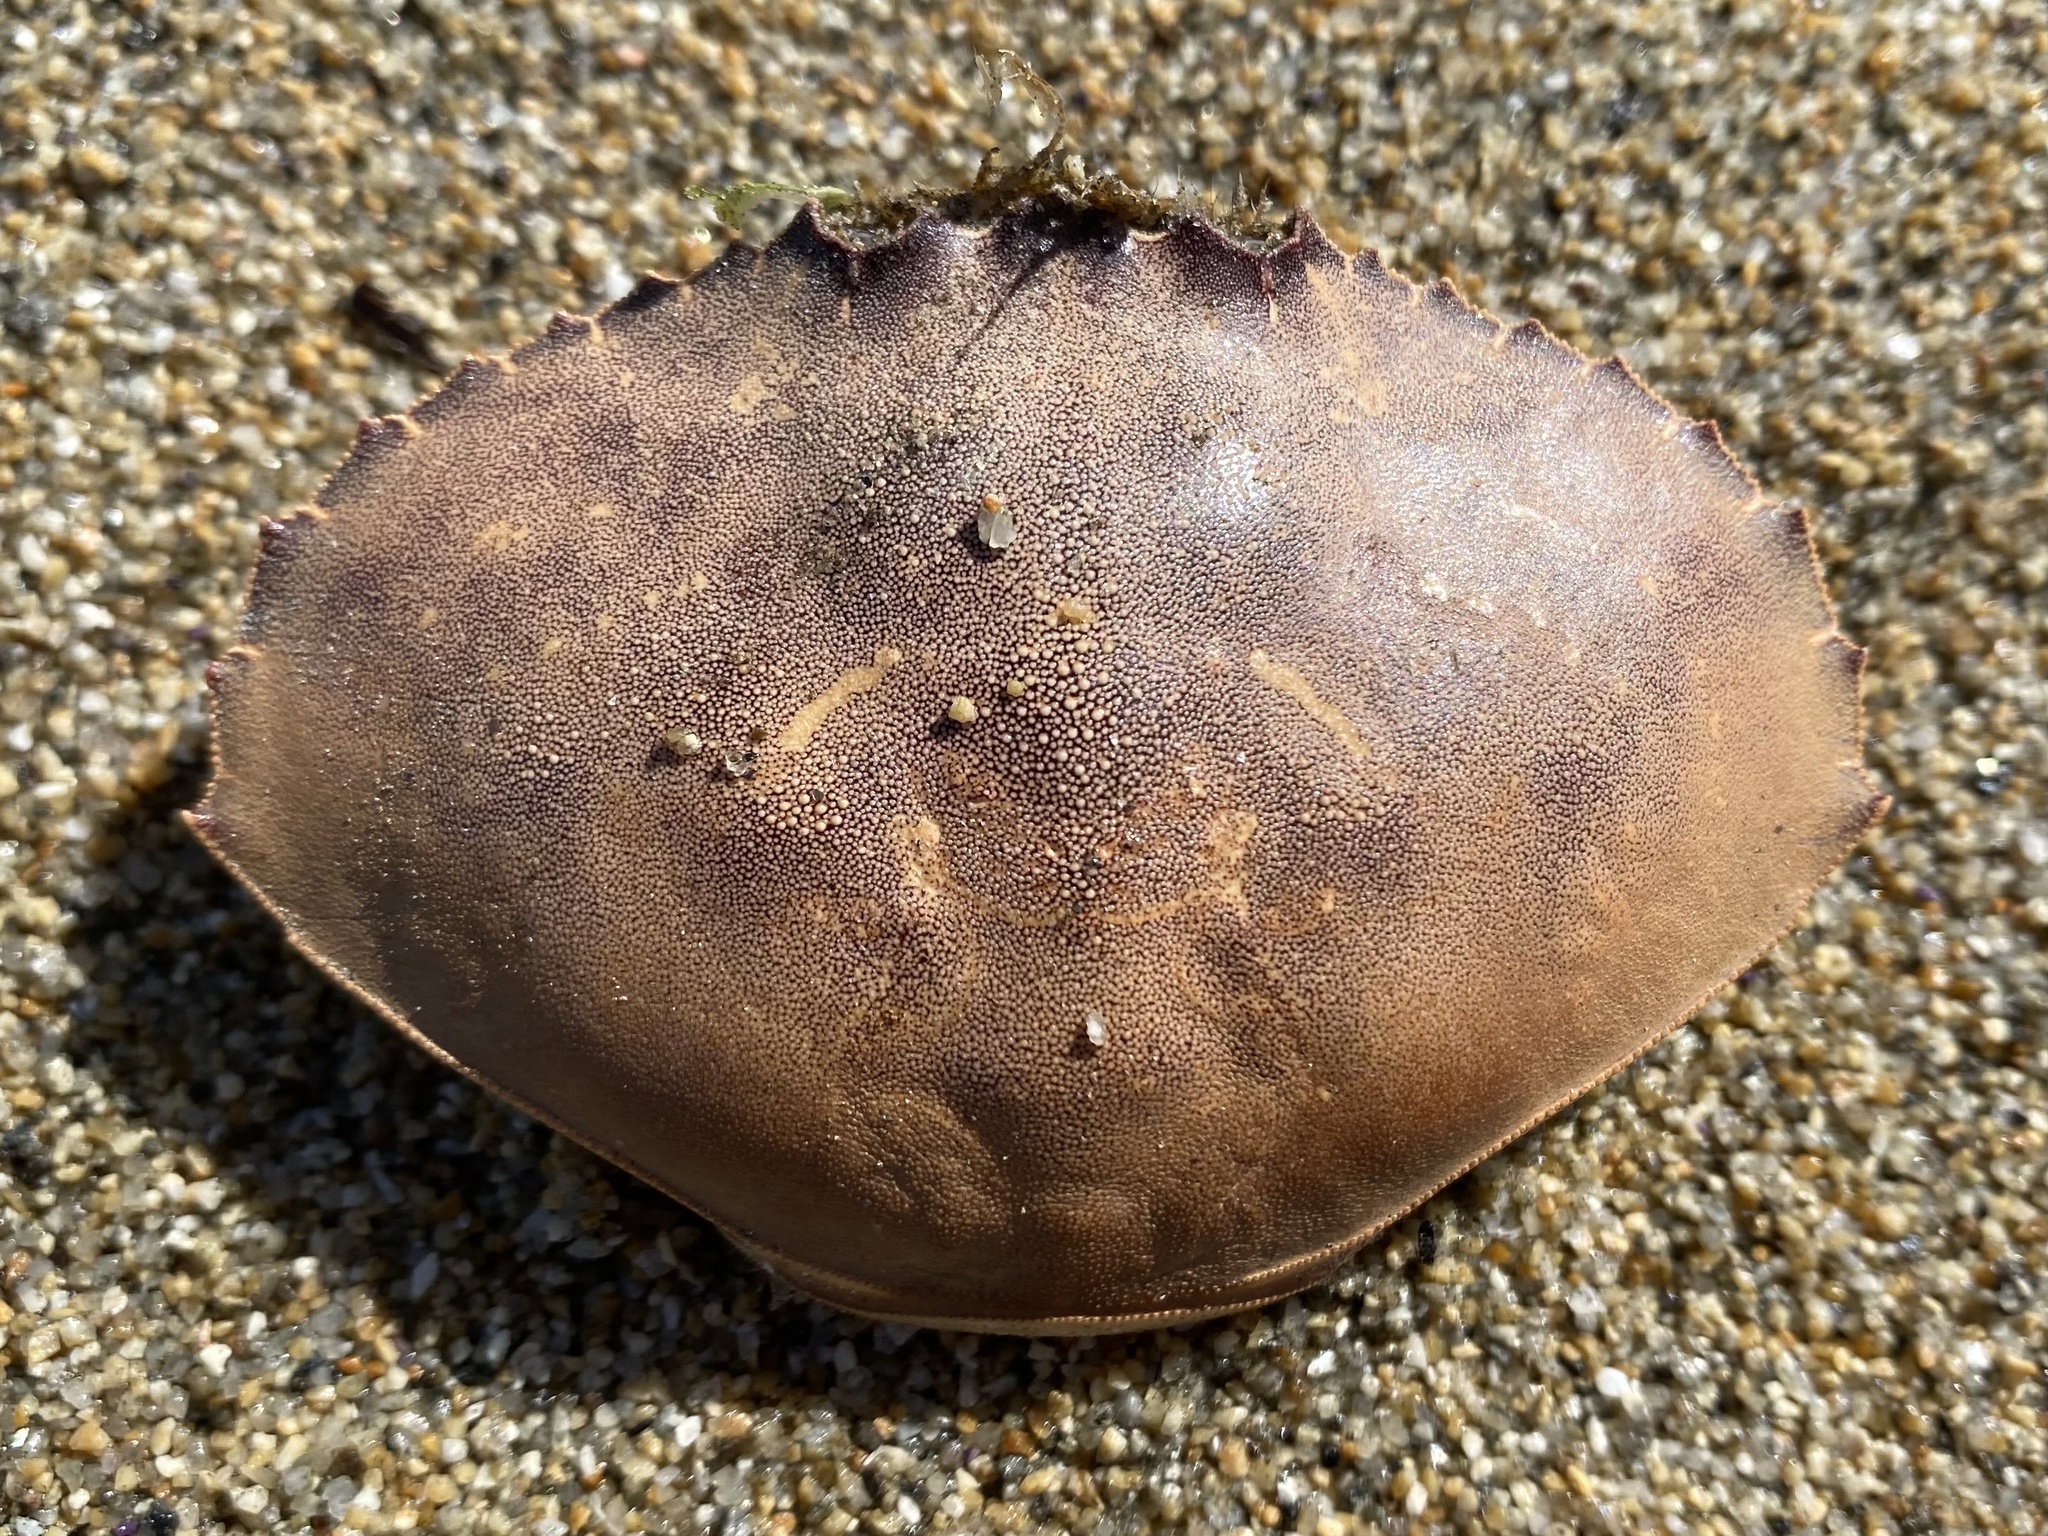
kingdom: Animalia
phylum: Arthropoda
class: Malacostraca
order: Decapoda
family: Cancridae
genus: Metacarcinus
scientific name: Metacarcinus gracilis
